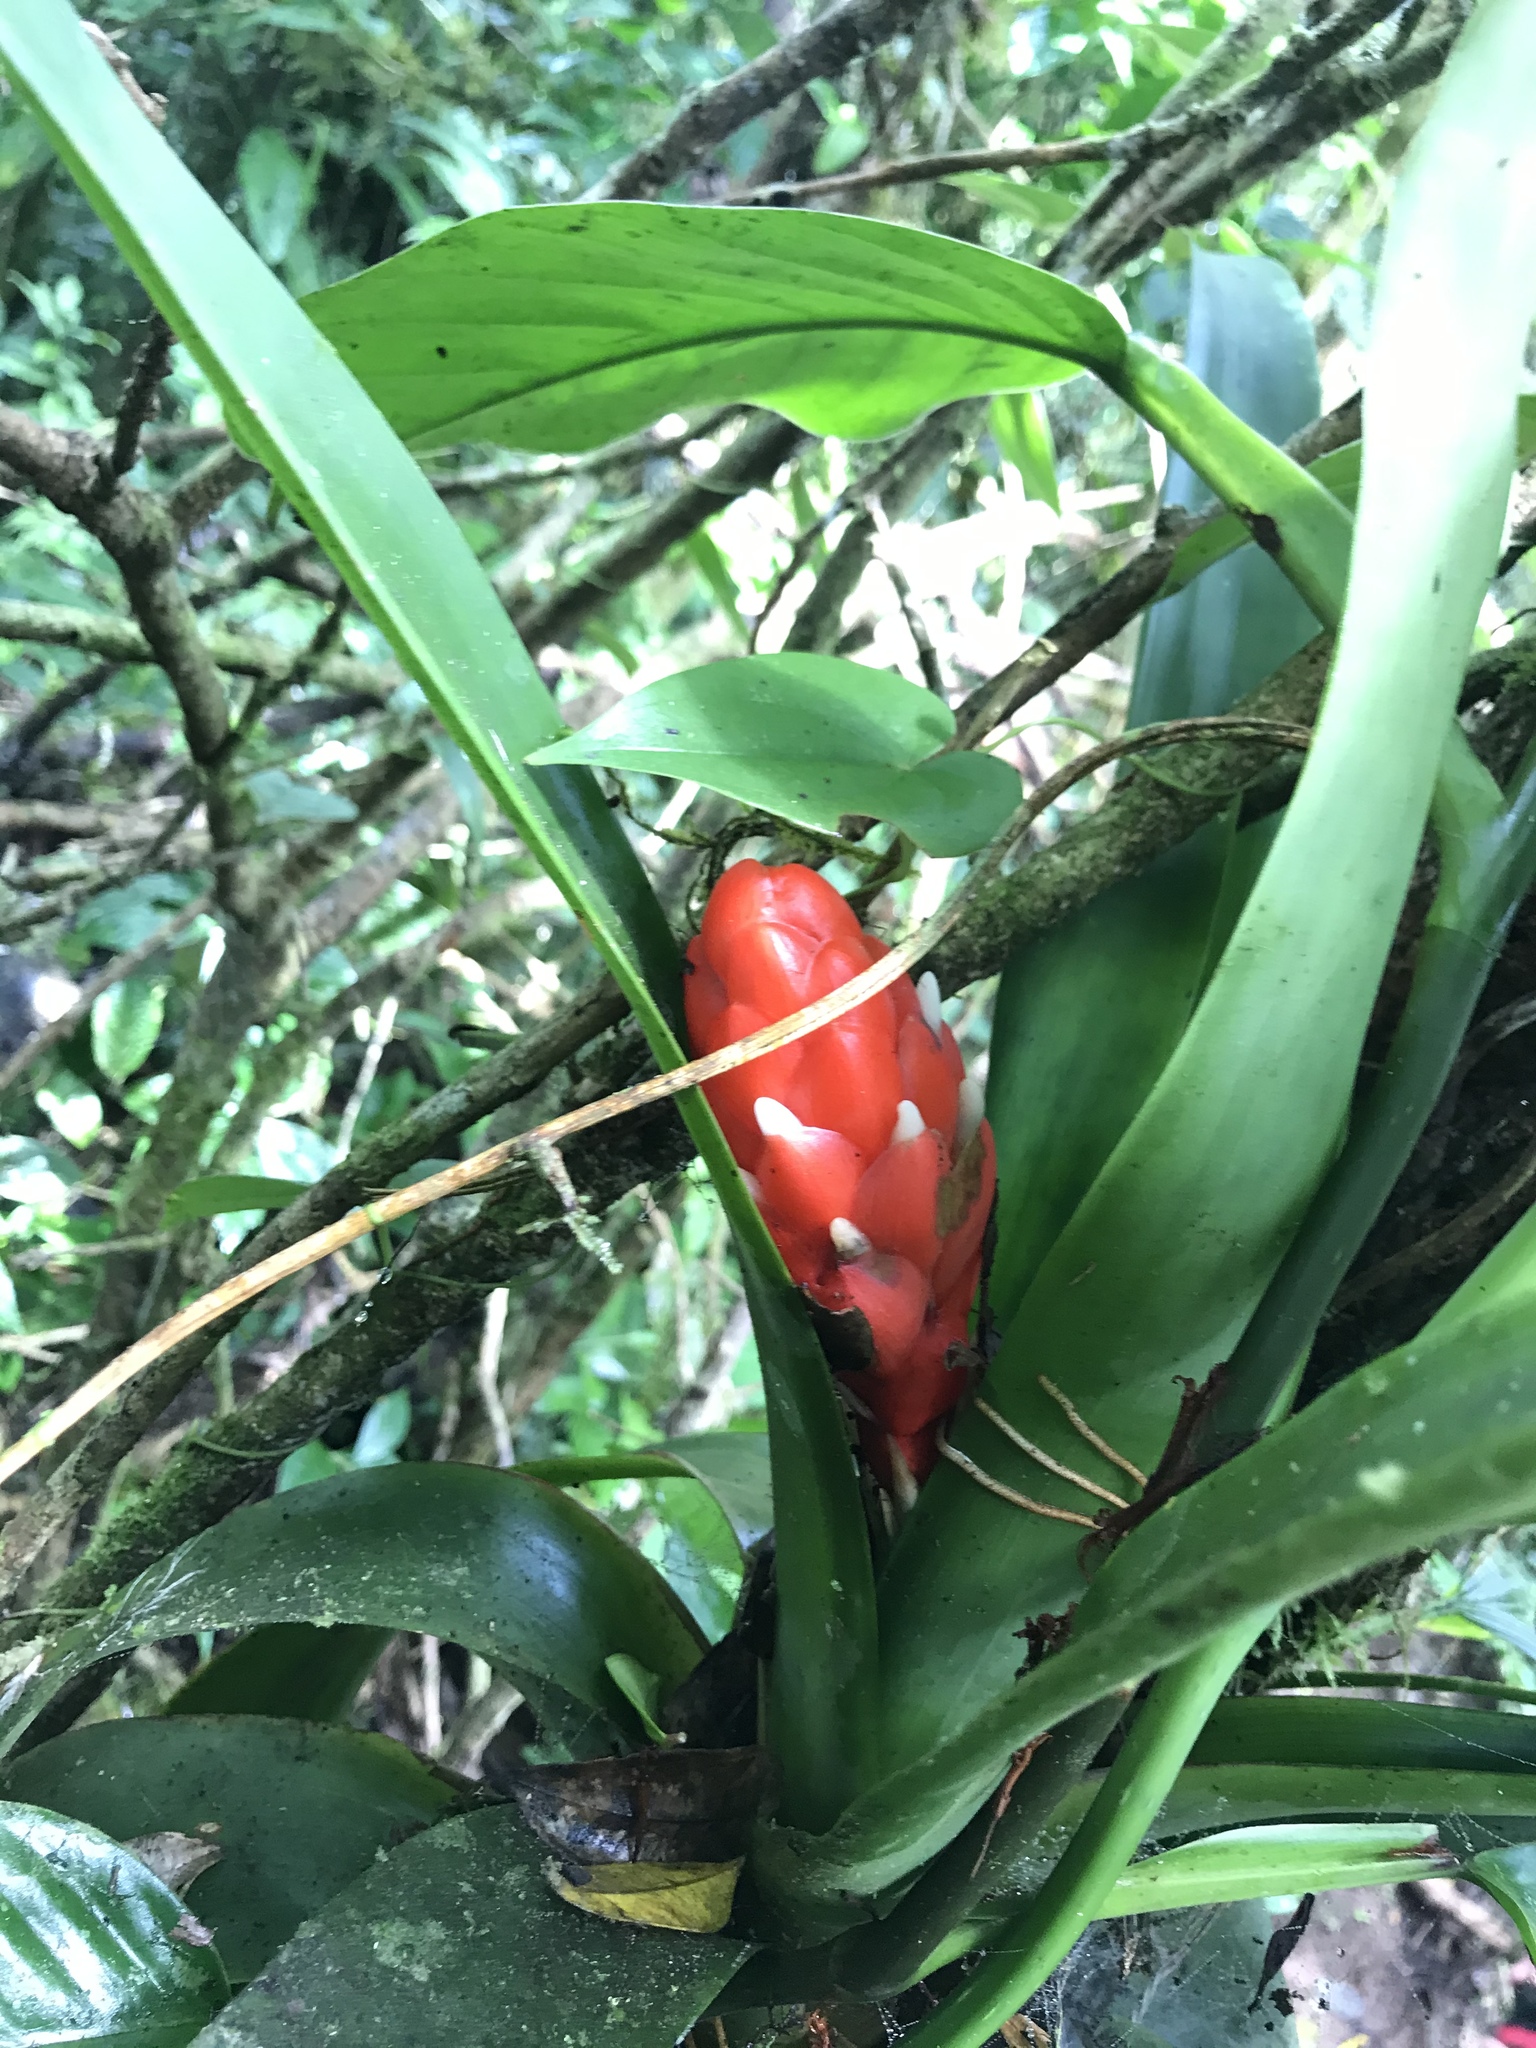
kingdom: Plantae
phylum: Tracheophyta
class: Liliopsida
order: Poales
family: Bromeliaceae
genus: Guzmania
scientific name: Guzmania desautelsii
